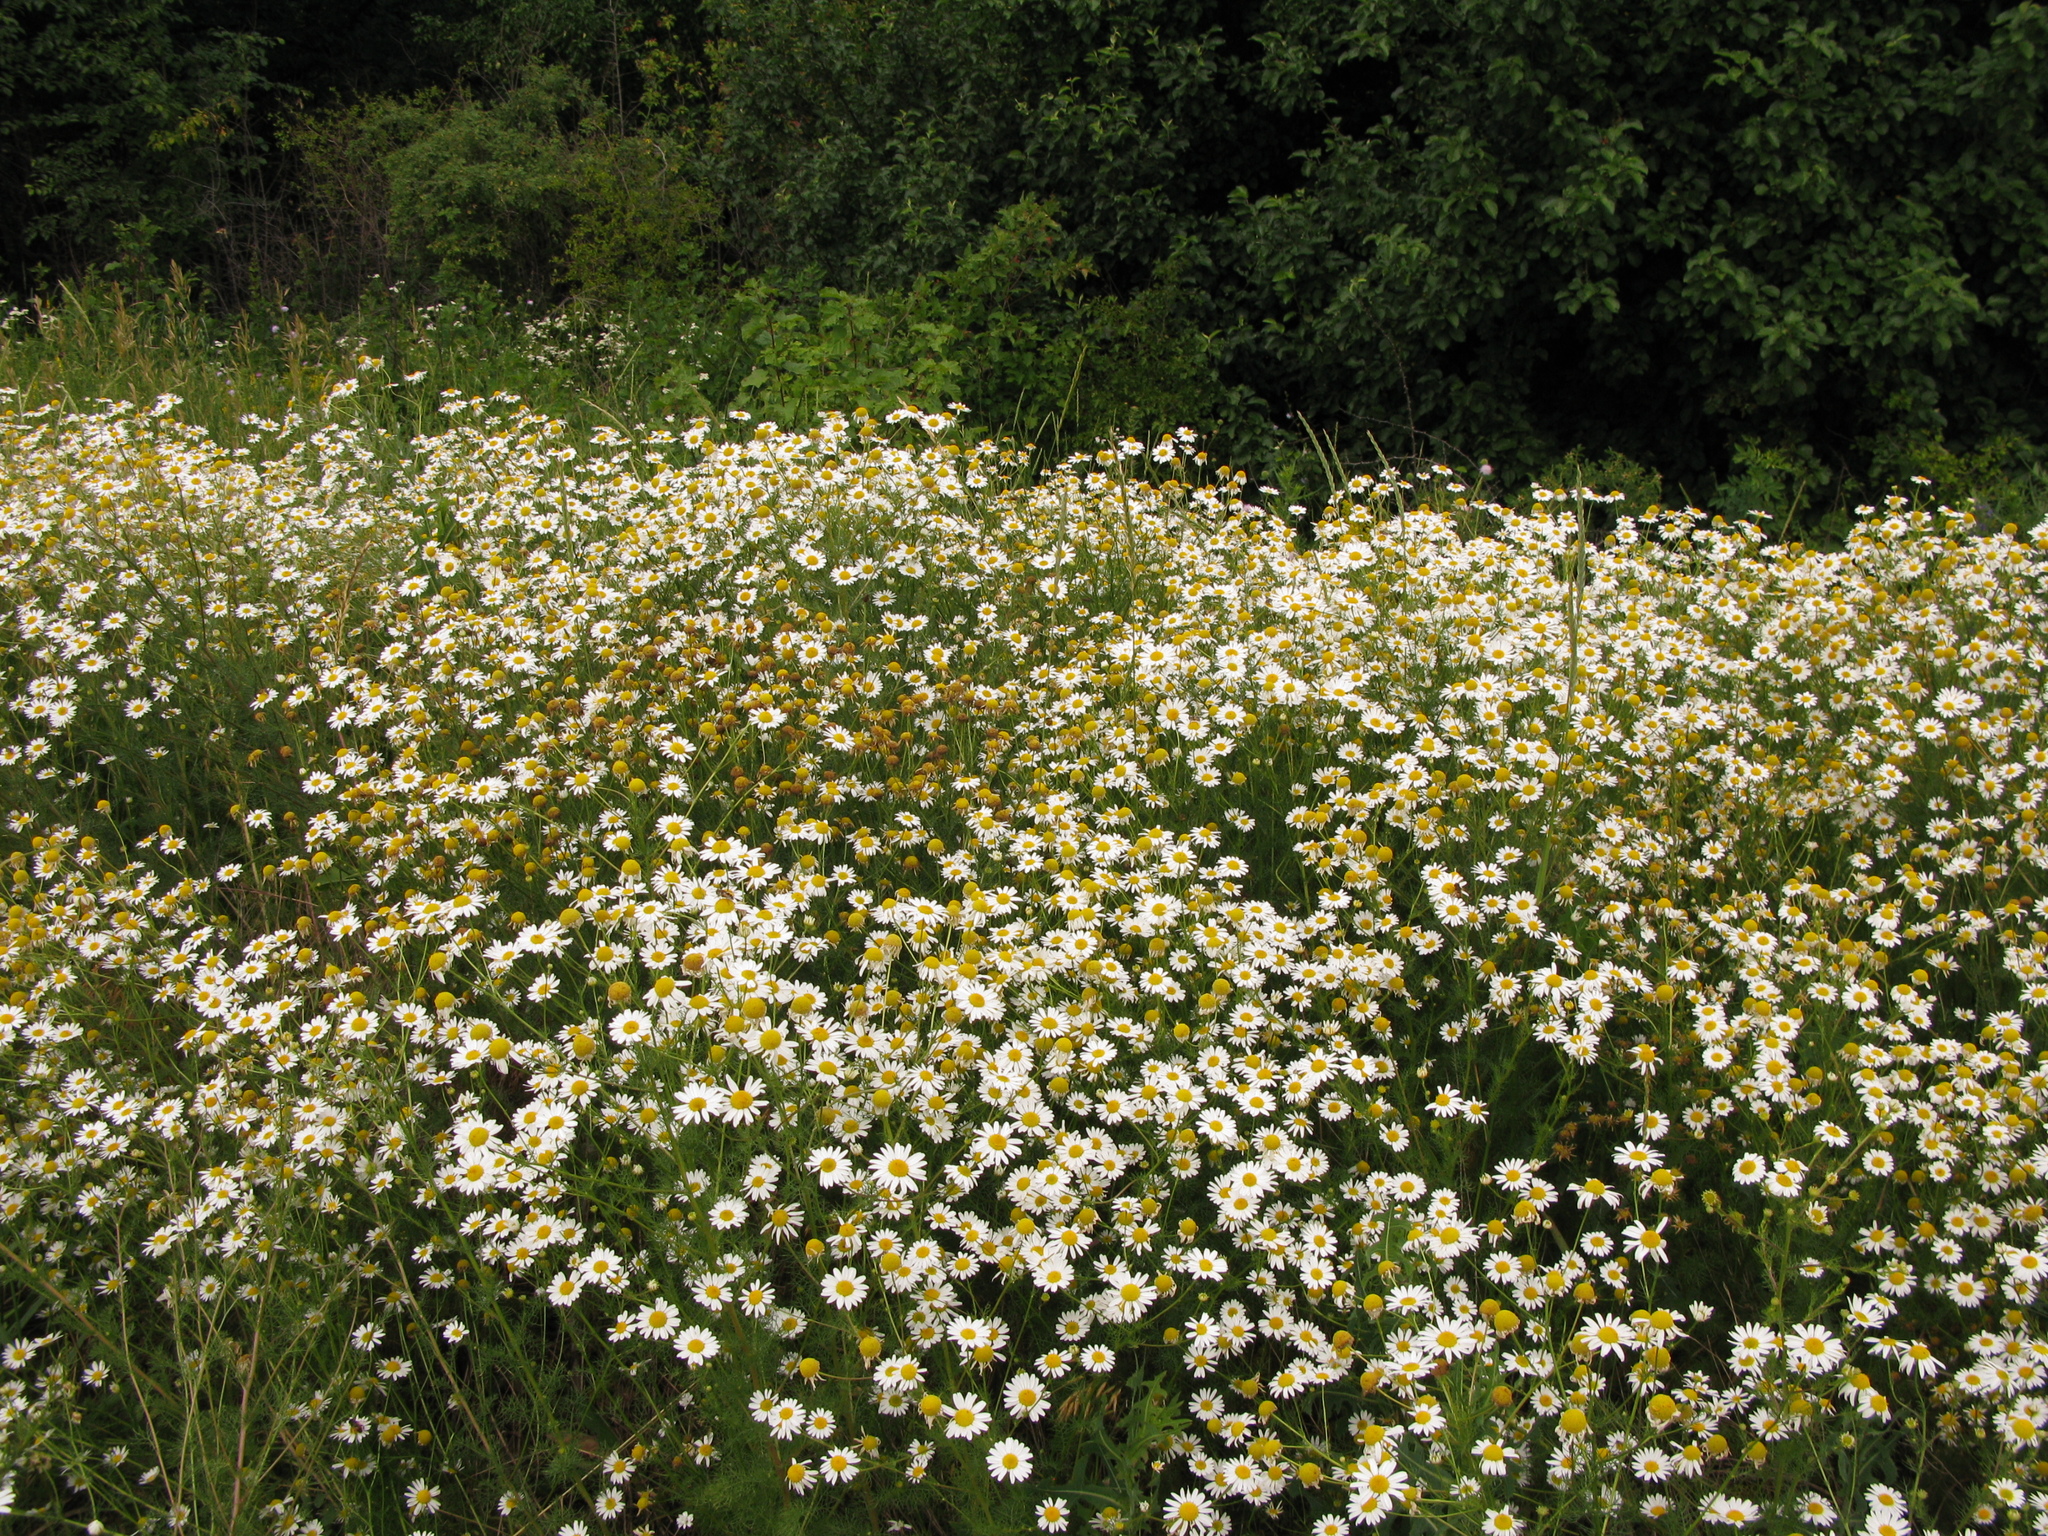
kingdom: Plantae
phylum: Tracheophyta
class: Magnoliopsida
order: Asterales
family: Asteraceae
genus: Matricaria
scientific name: Matricaria chamomilla
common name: Scented mayweed
